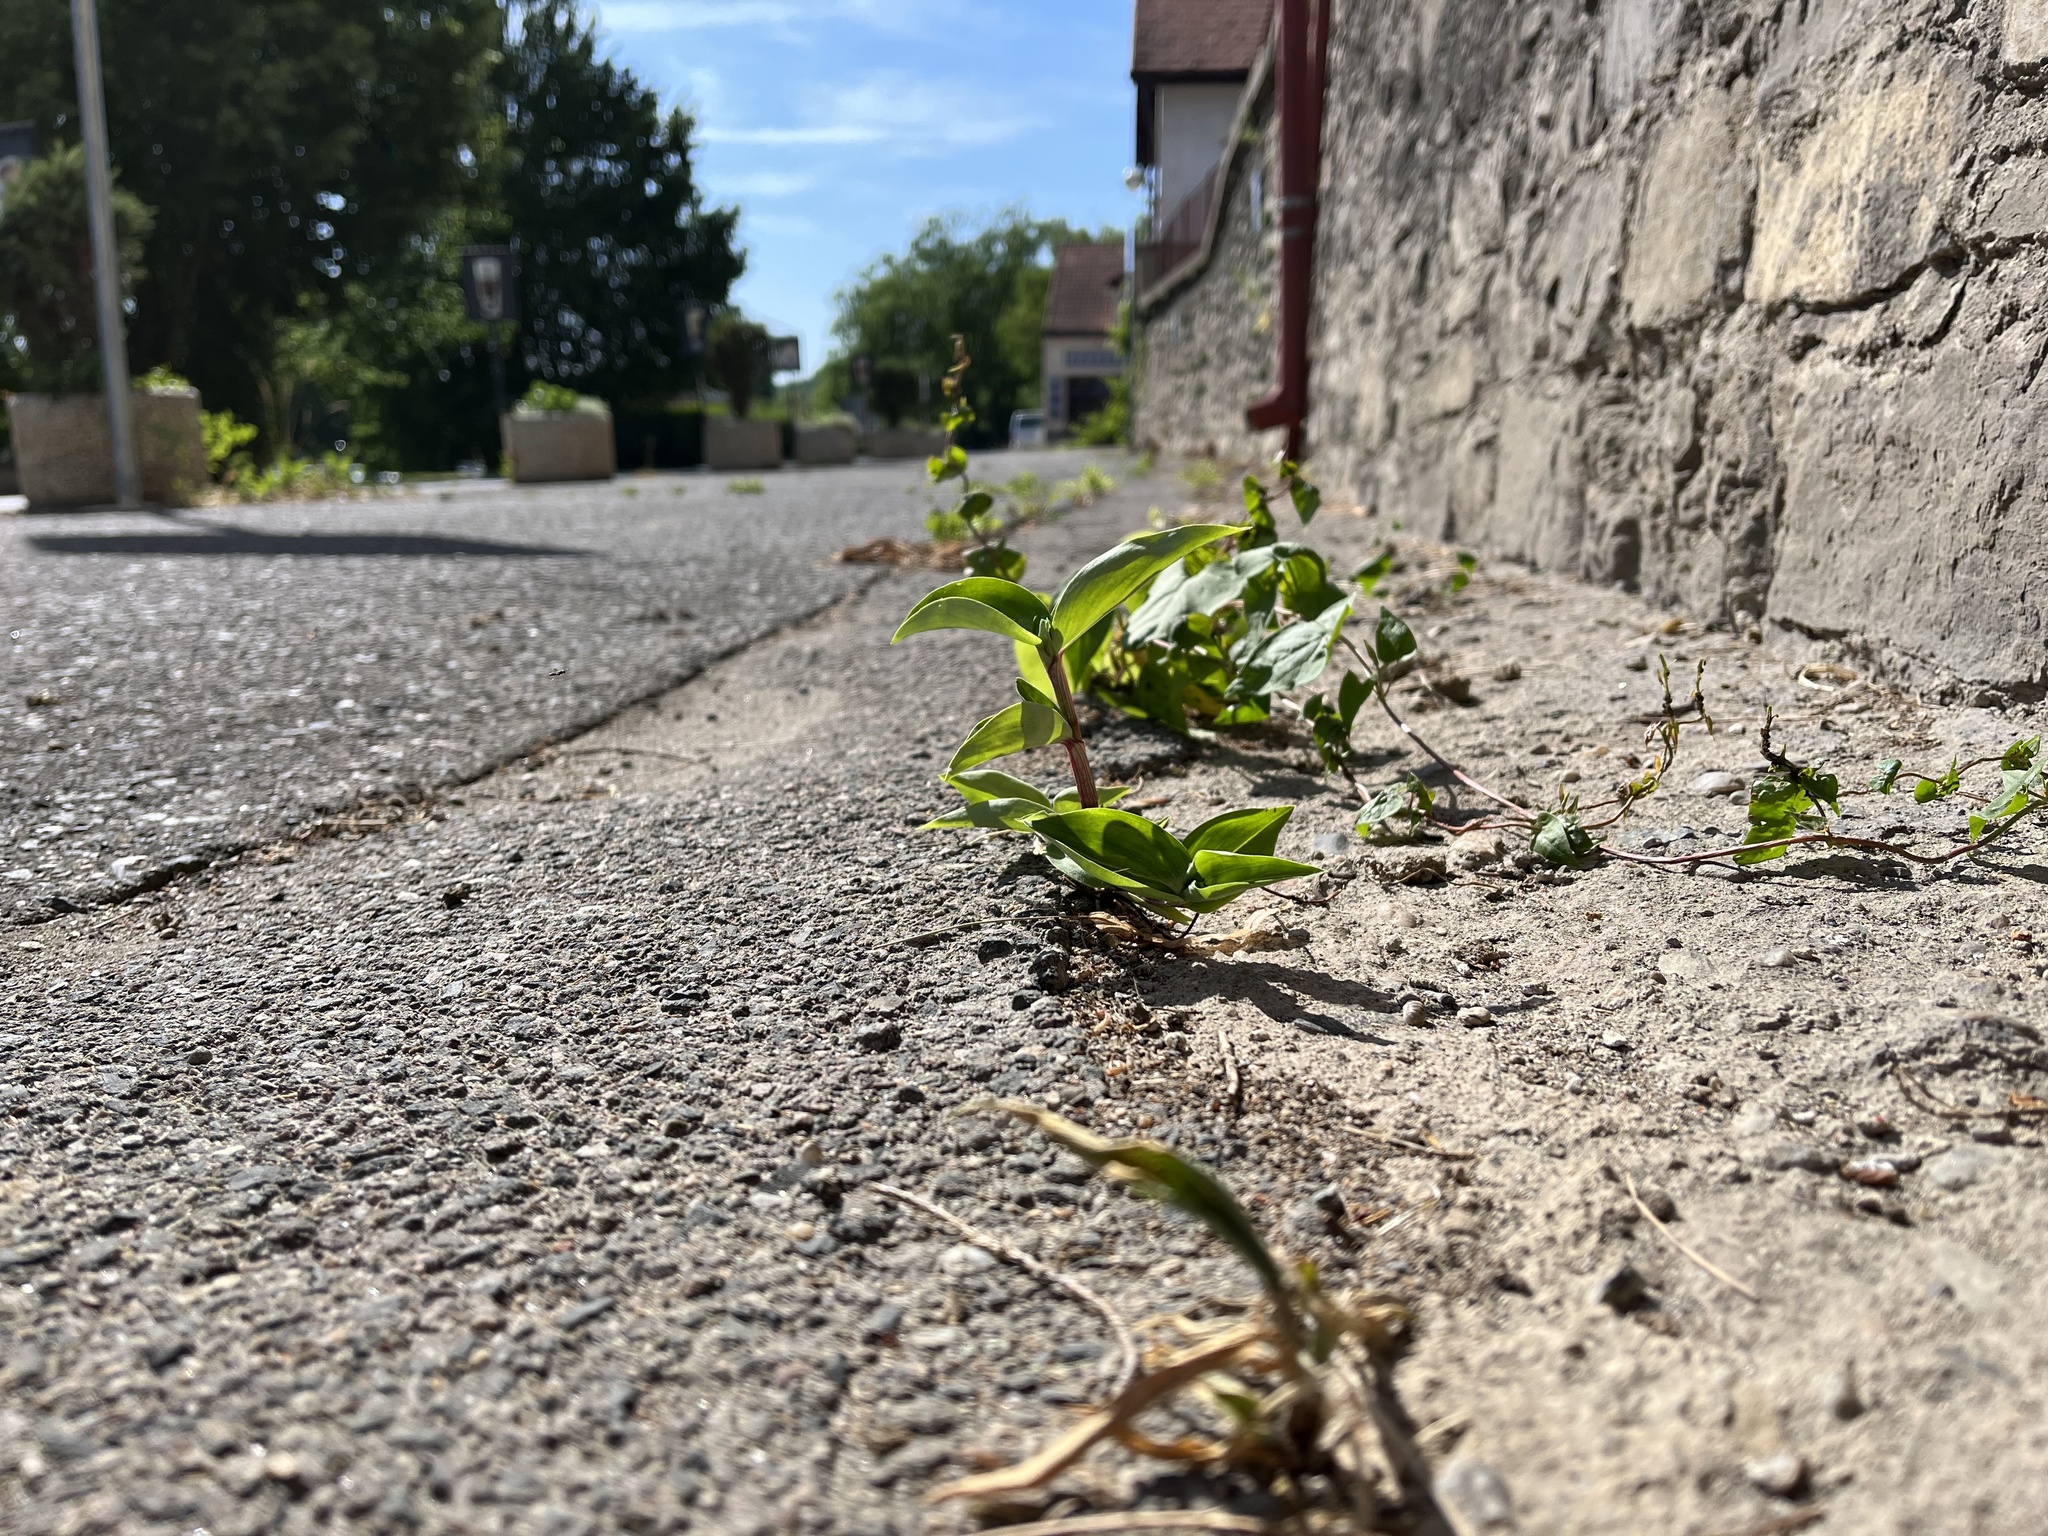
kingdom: Plantae
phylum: Tracheophyta
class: Liliopsida
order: Commelinales
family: Commelinaceae
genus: Commelina
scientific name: Commelina communis
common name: Asiatic dayflower
